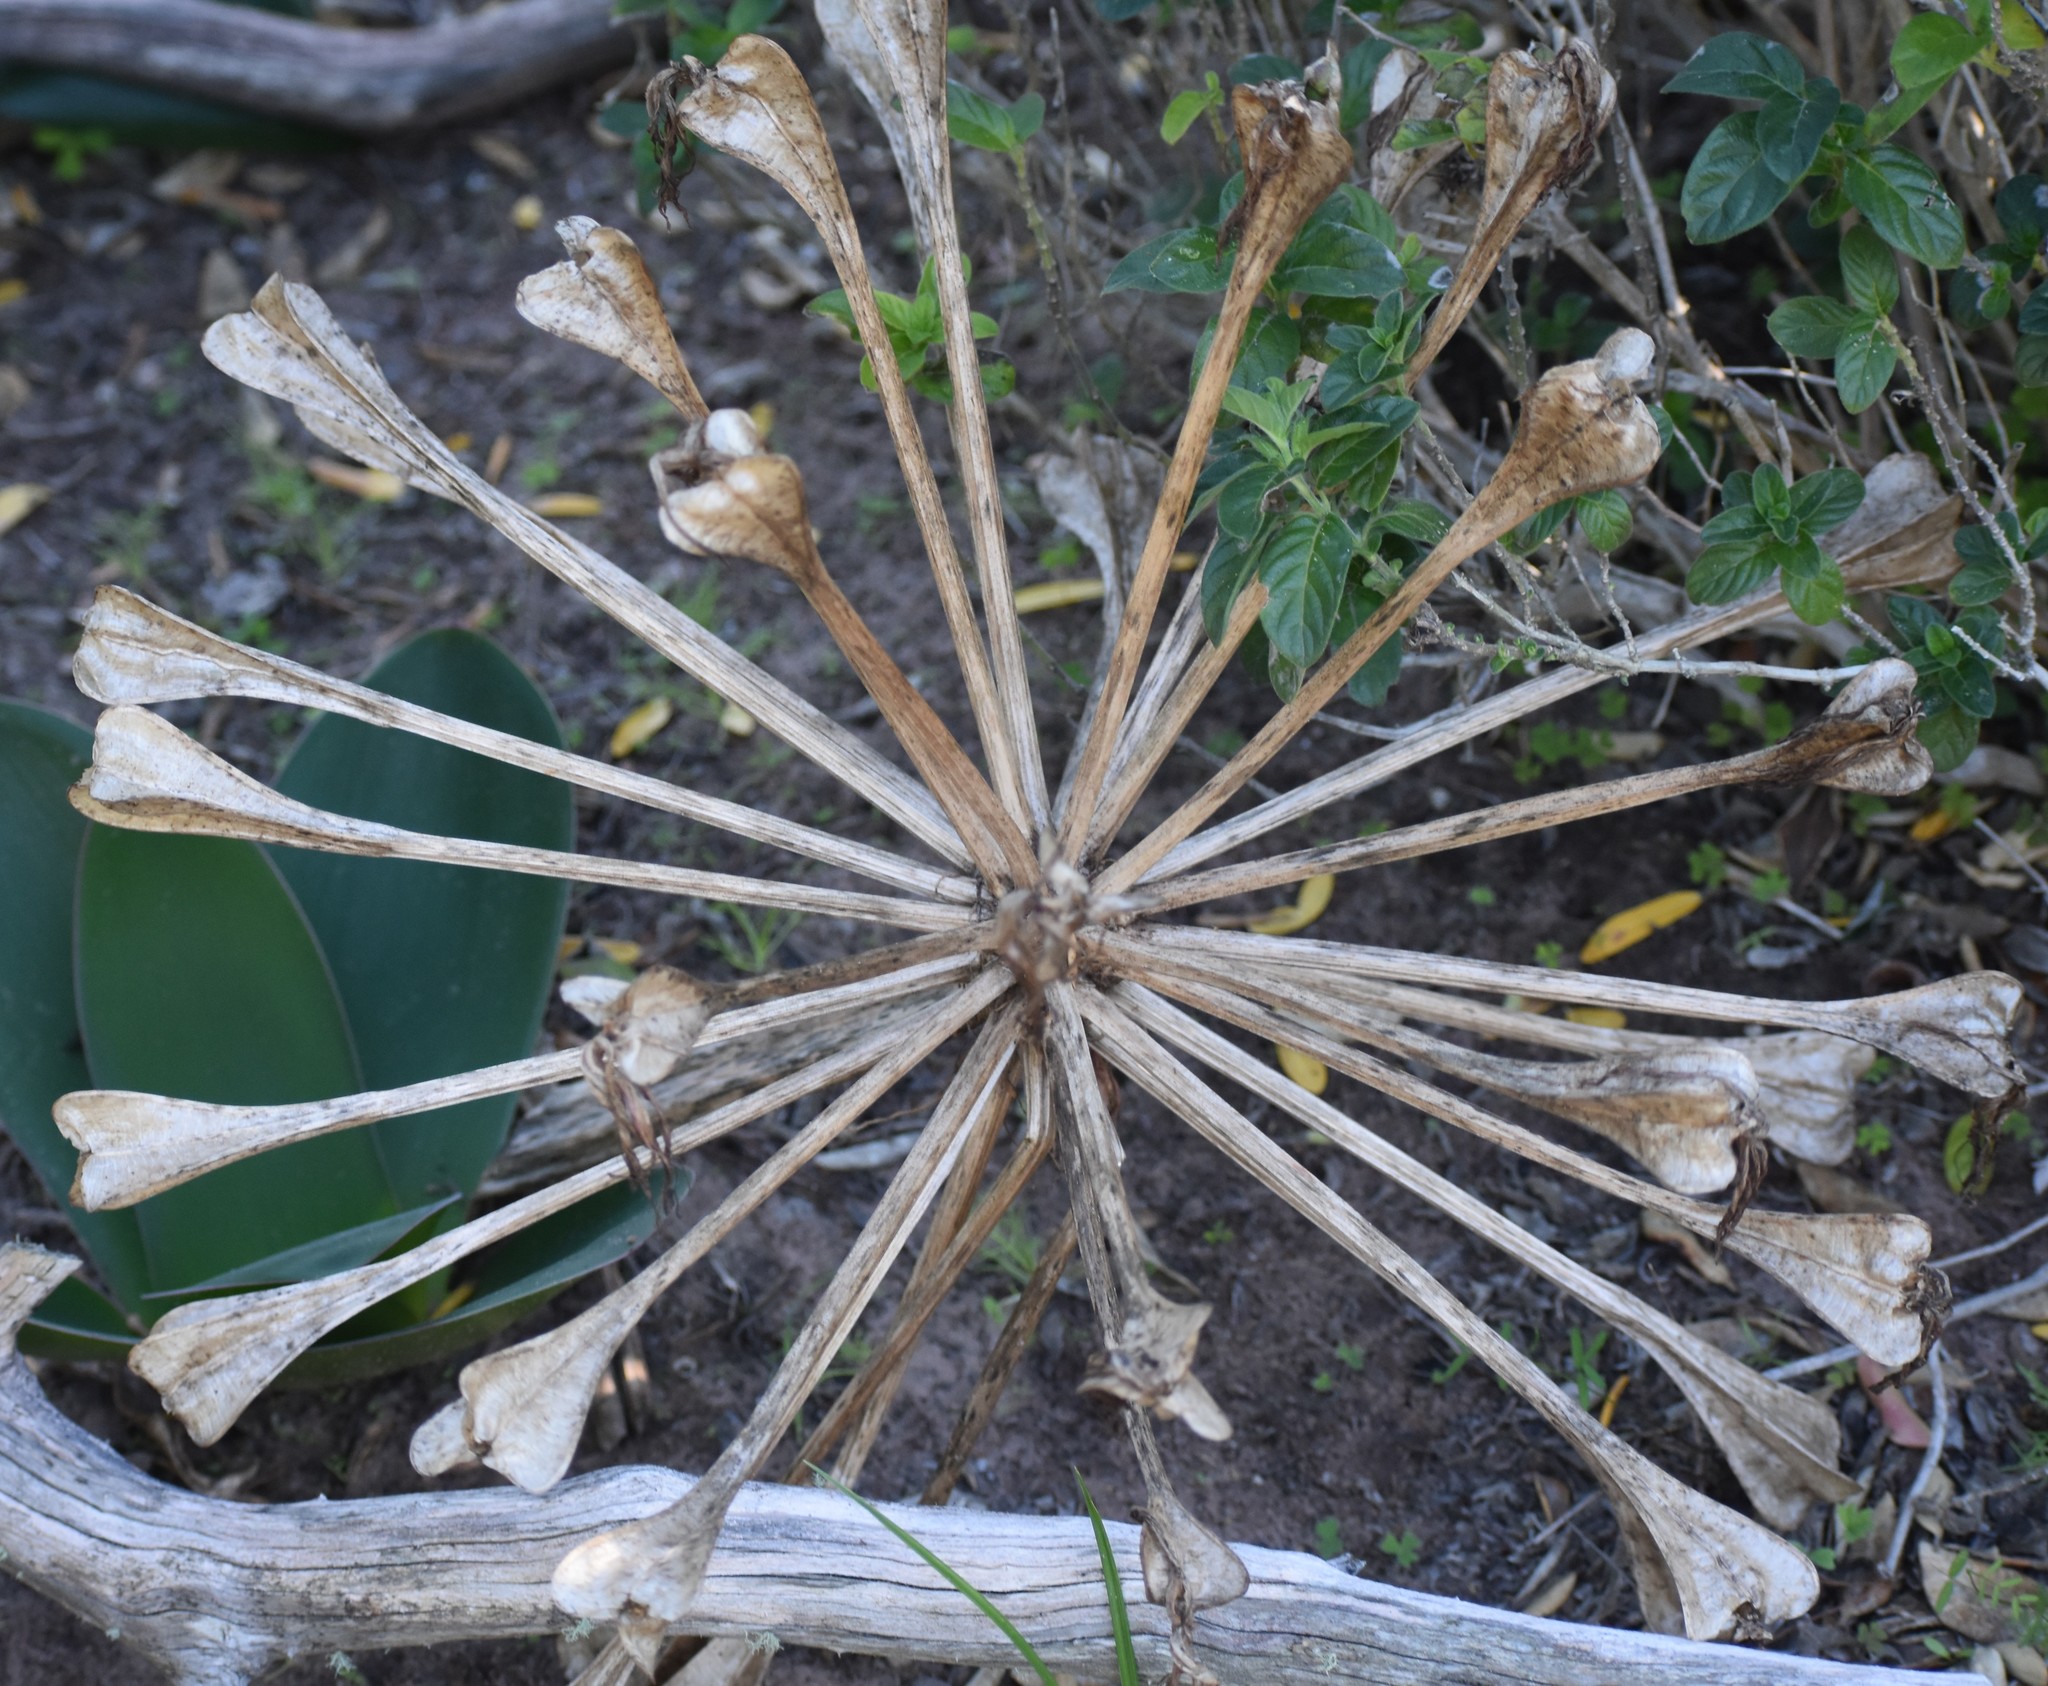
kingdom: Plantae
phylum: Tracheophyta
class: Liliopsida
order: Asparagales
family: Amaryllidaceae
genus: Brunsvigia
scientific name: Brunsvigia orientalis
